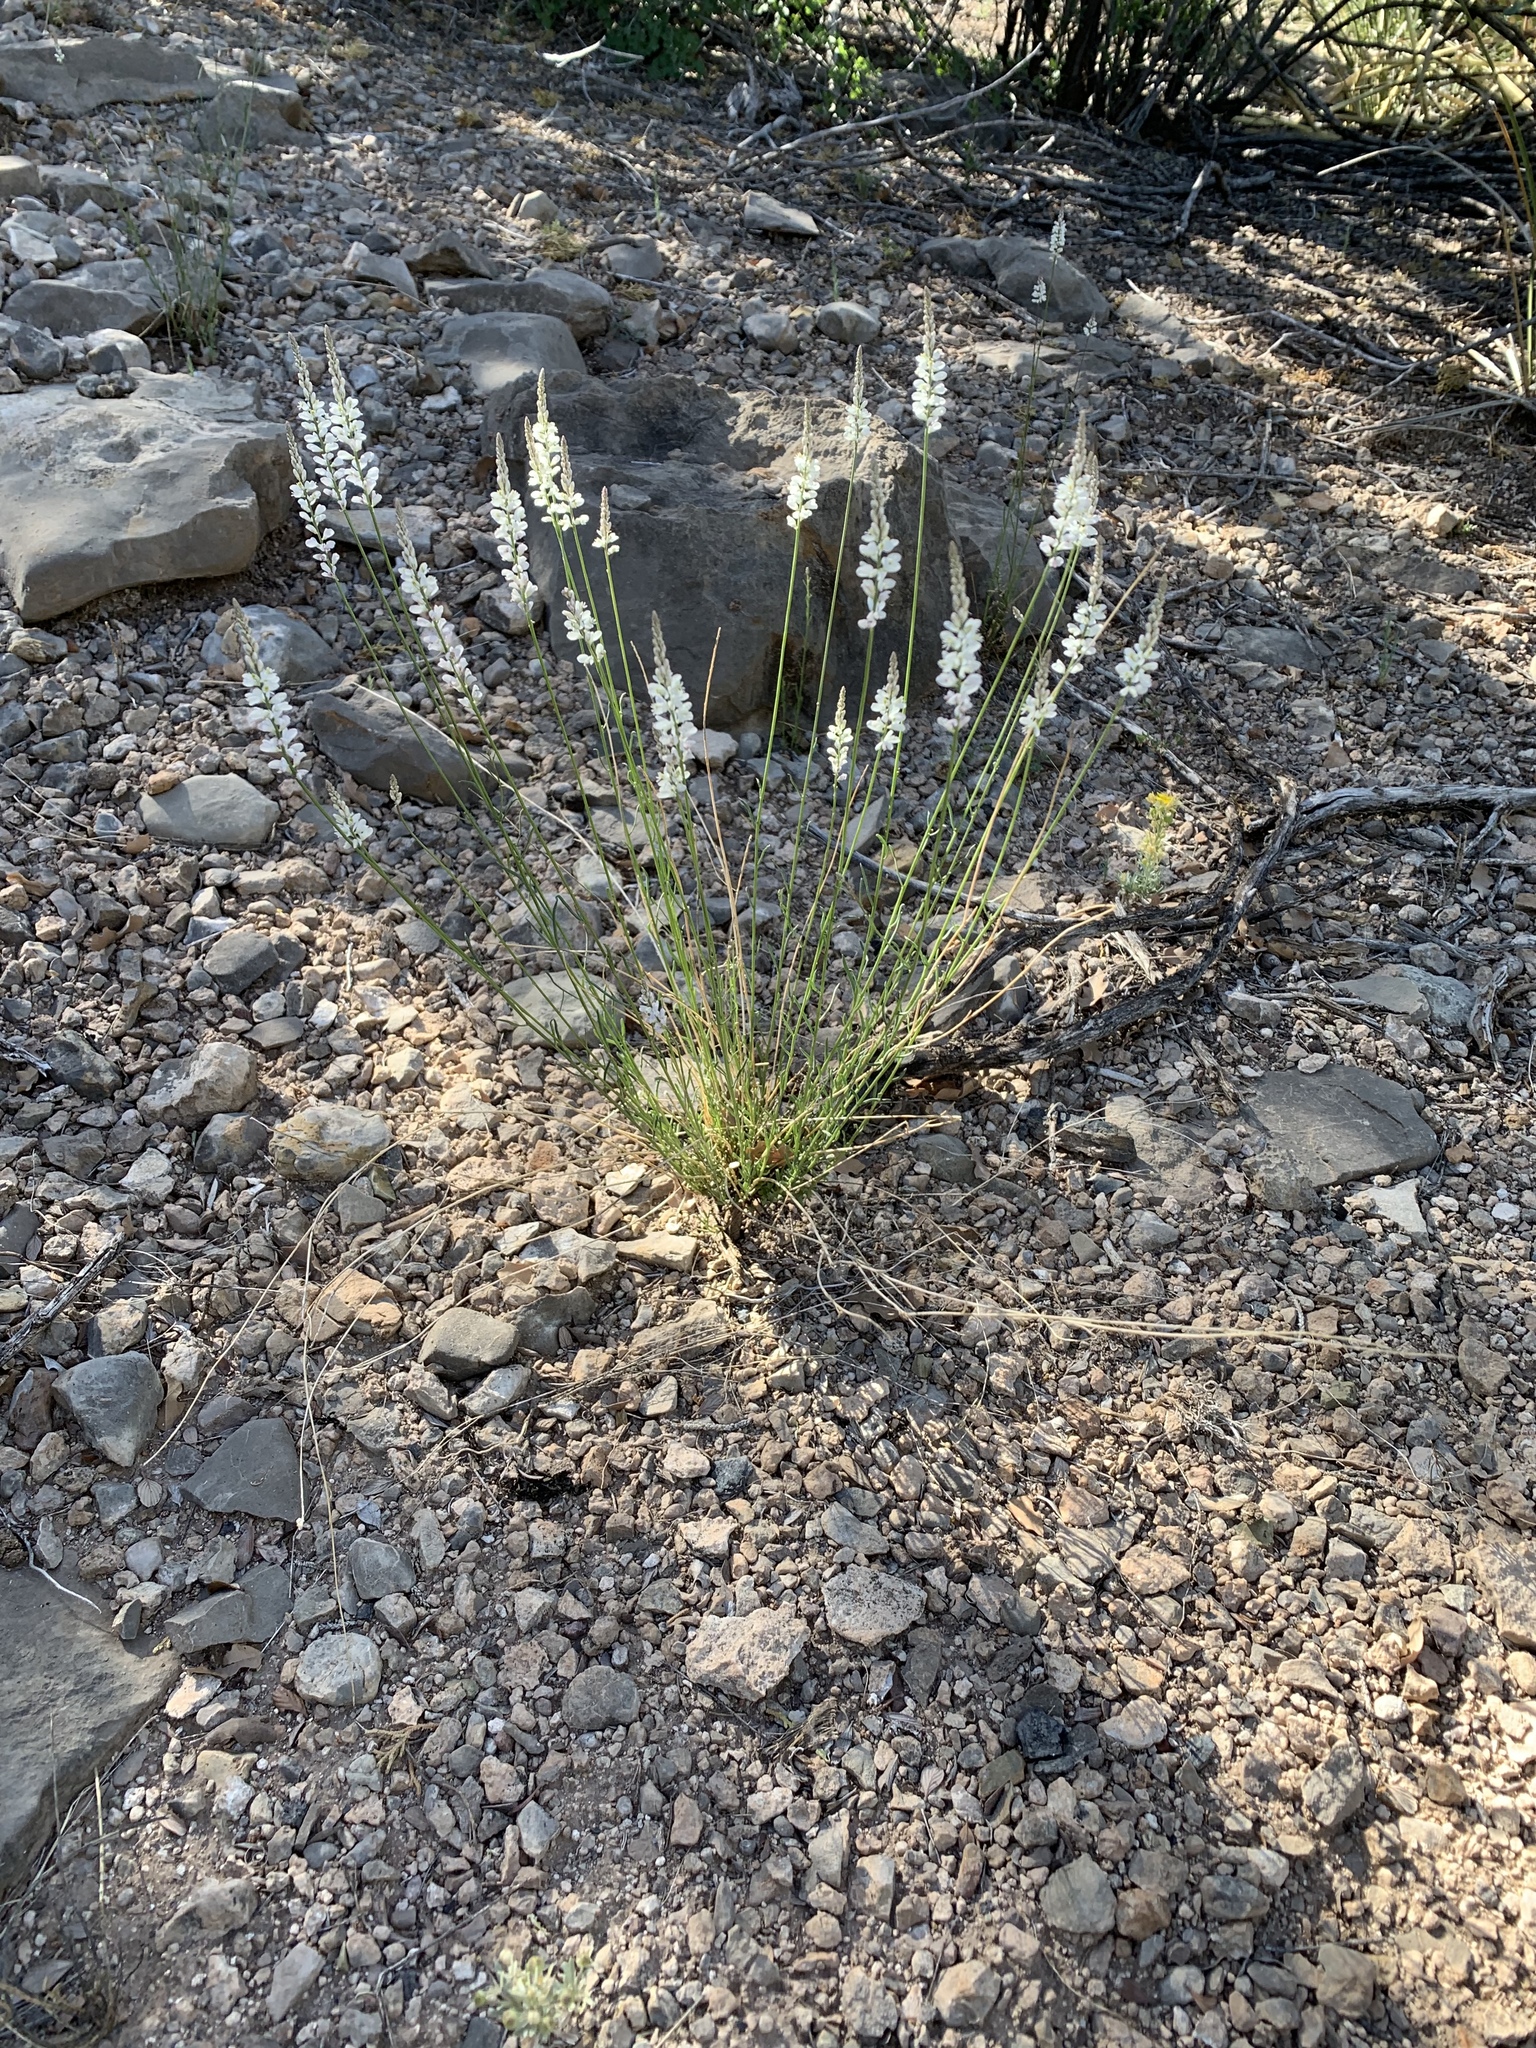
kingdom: Plantae
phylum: Tracheophyta
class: Magnoliopsida
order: Fabales
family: Polygalaceae
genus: Polygala
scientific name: Polygala alba
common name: White milkwort
